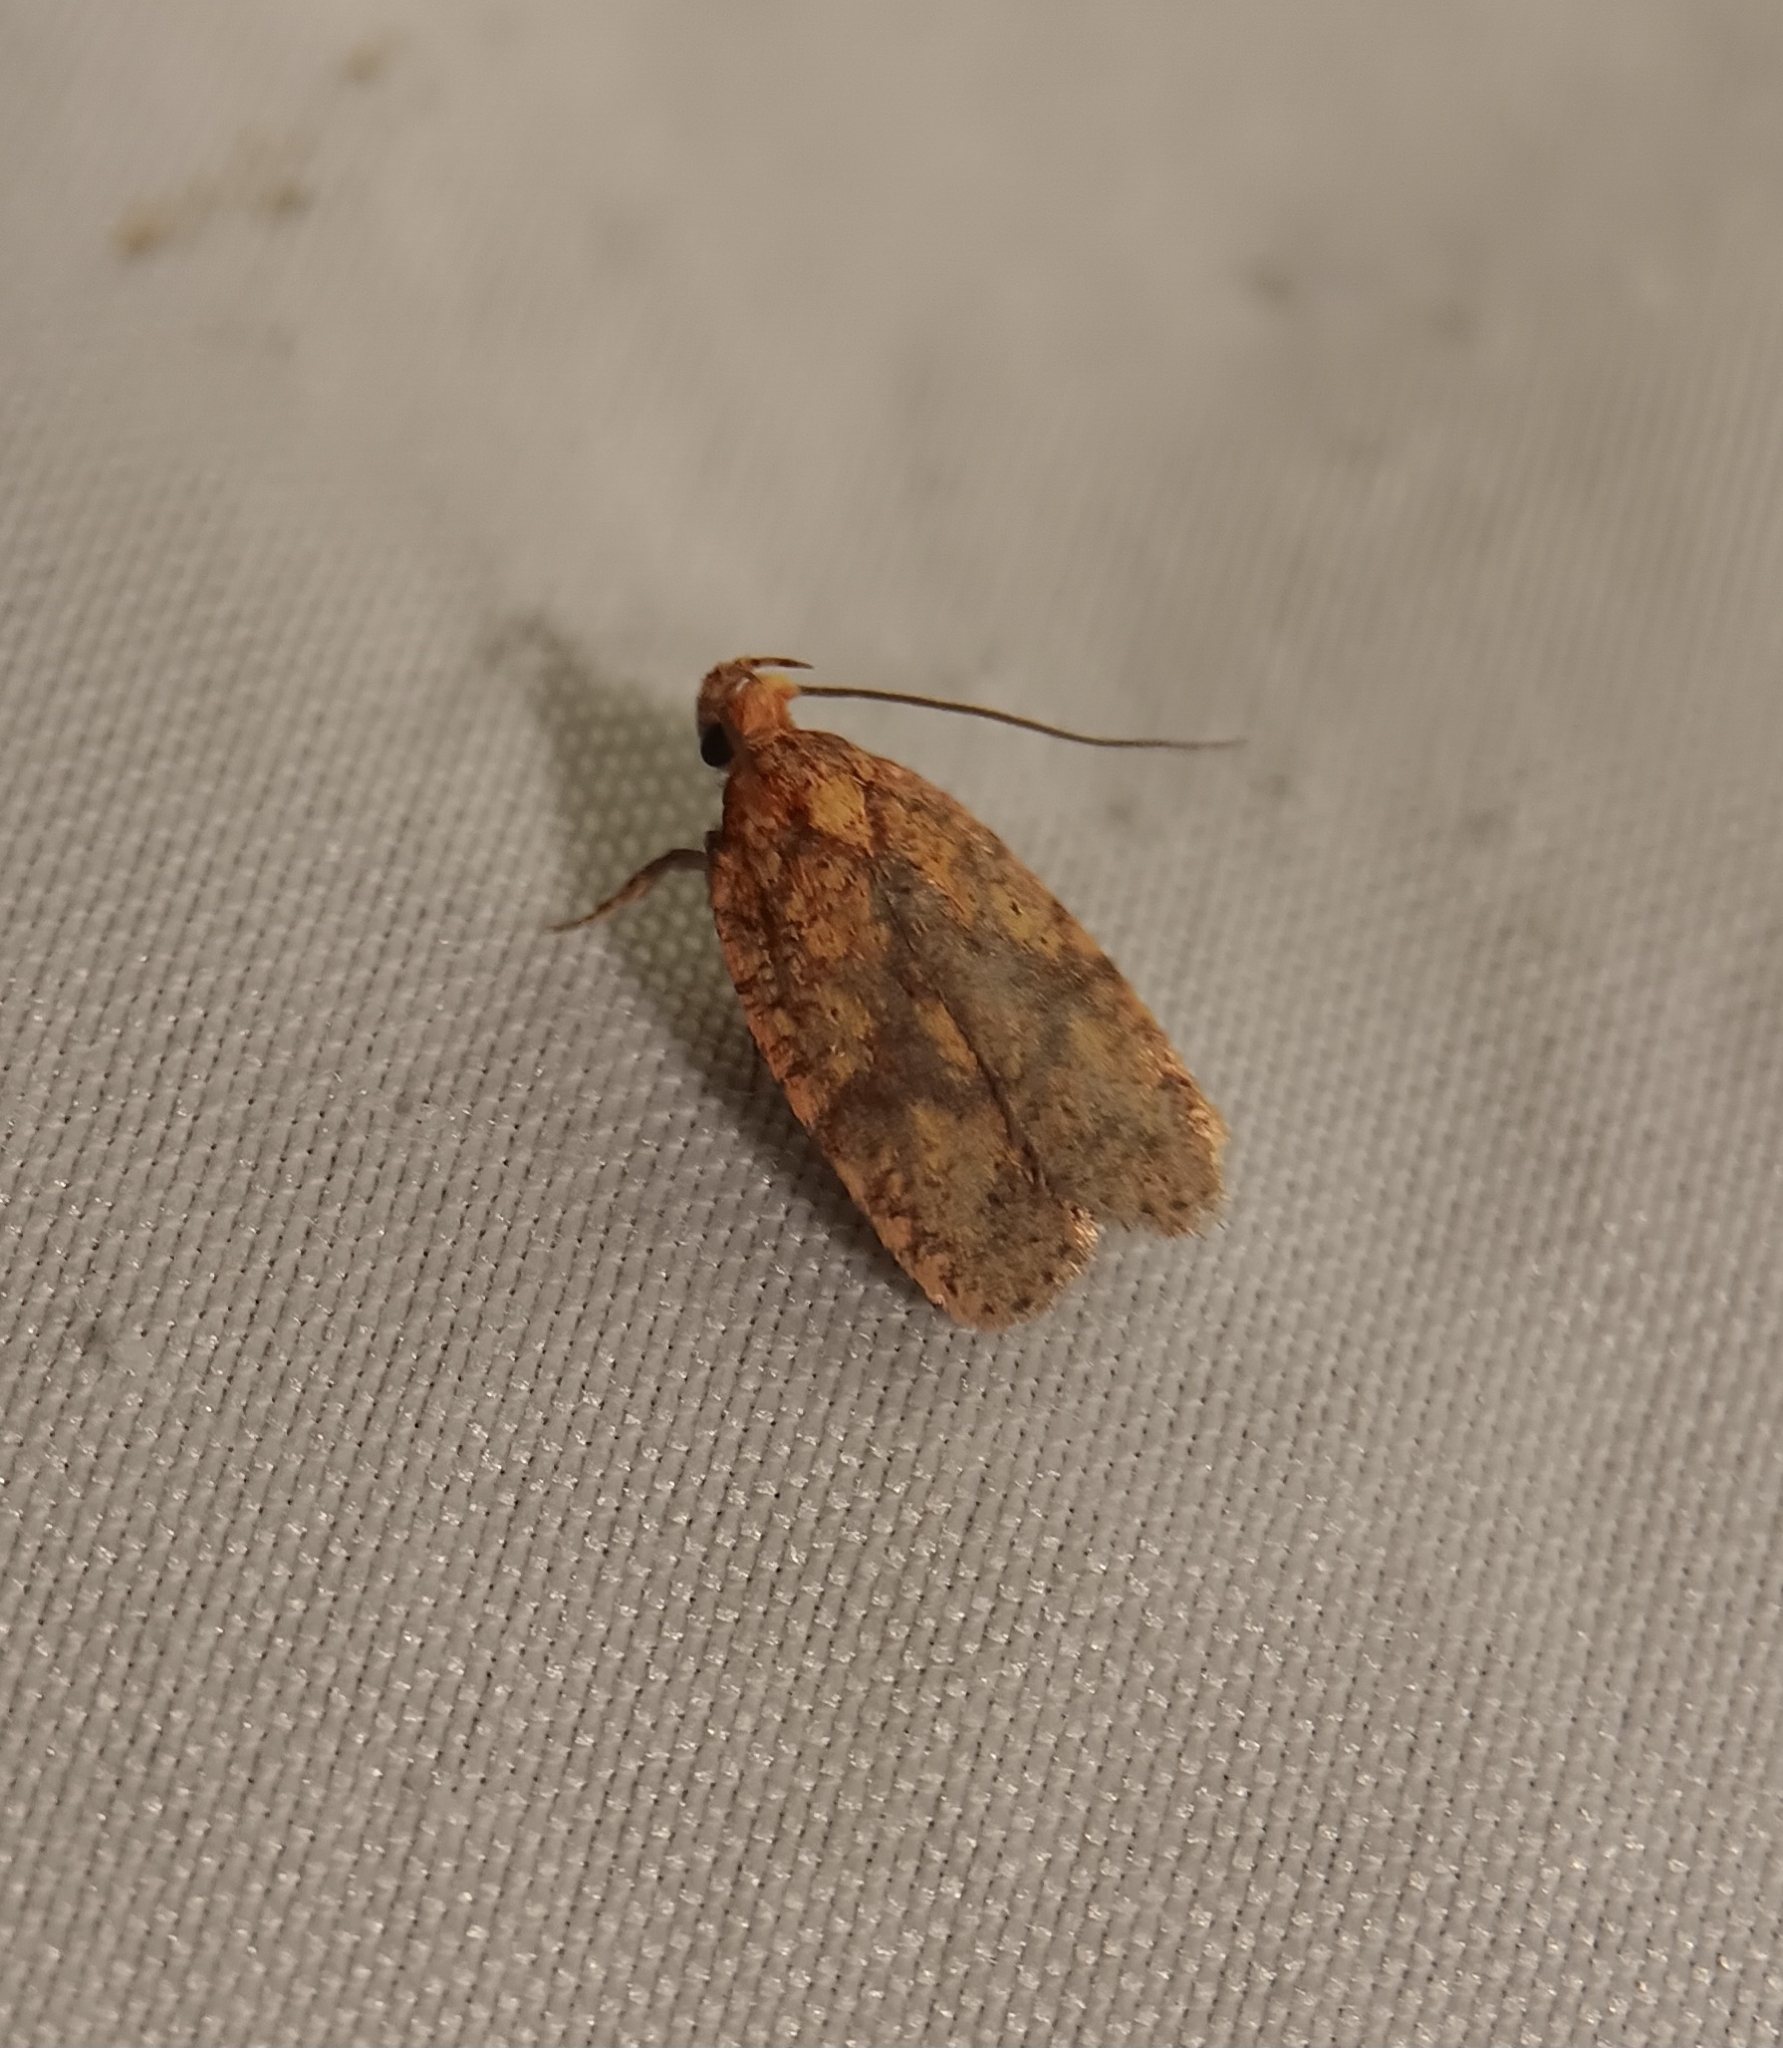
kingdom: Animalia
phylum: Arthropoda
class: Insecta
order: Lepidoptera
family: Depressariidae
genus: Agonopterix
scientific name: Agonopterix robiniella
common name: Four-dotted agonopterix moth
